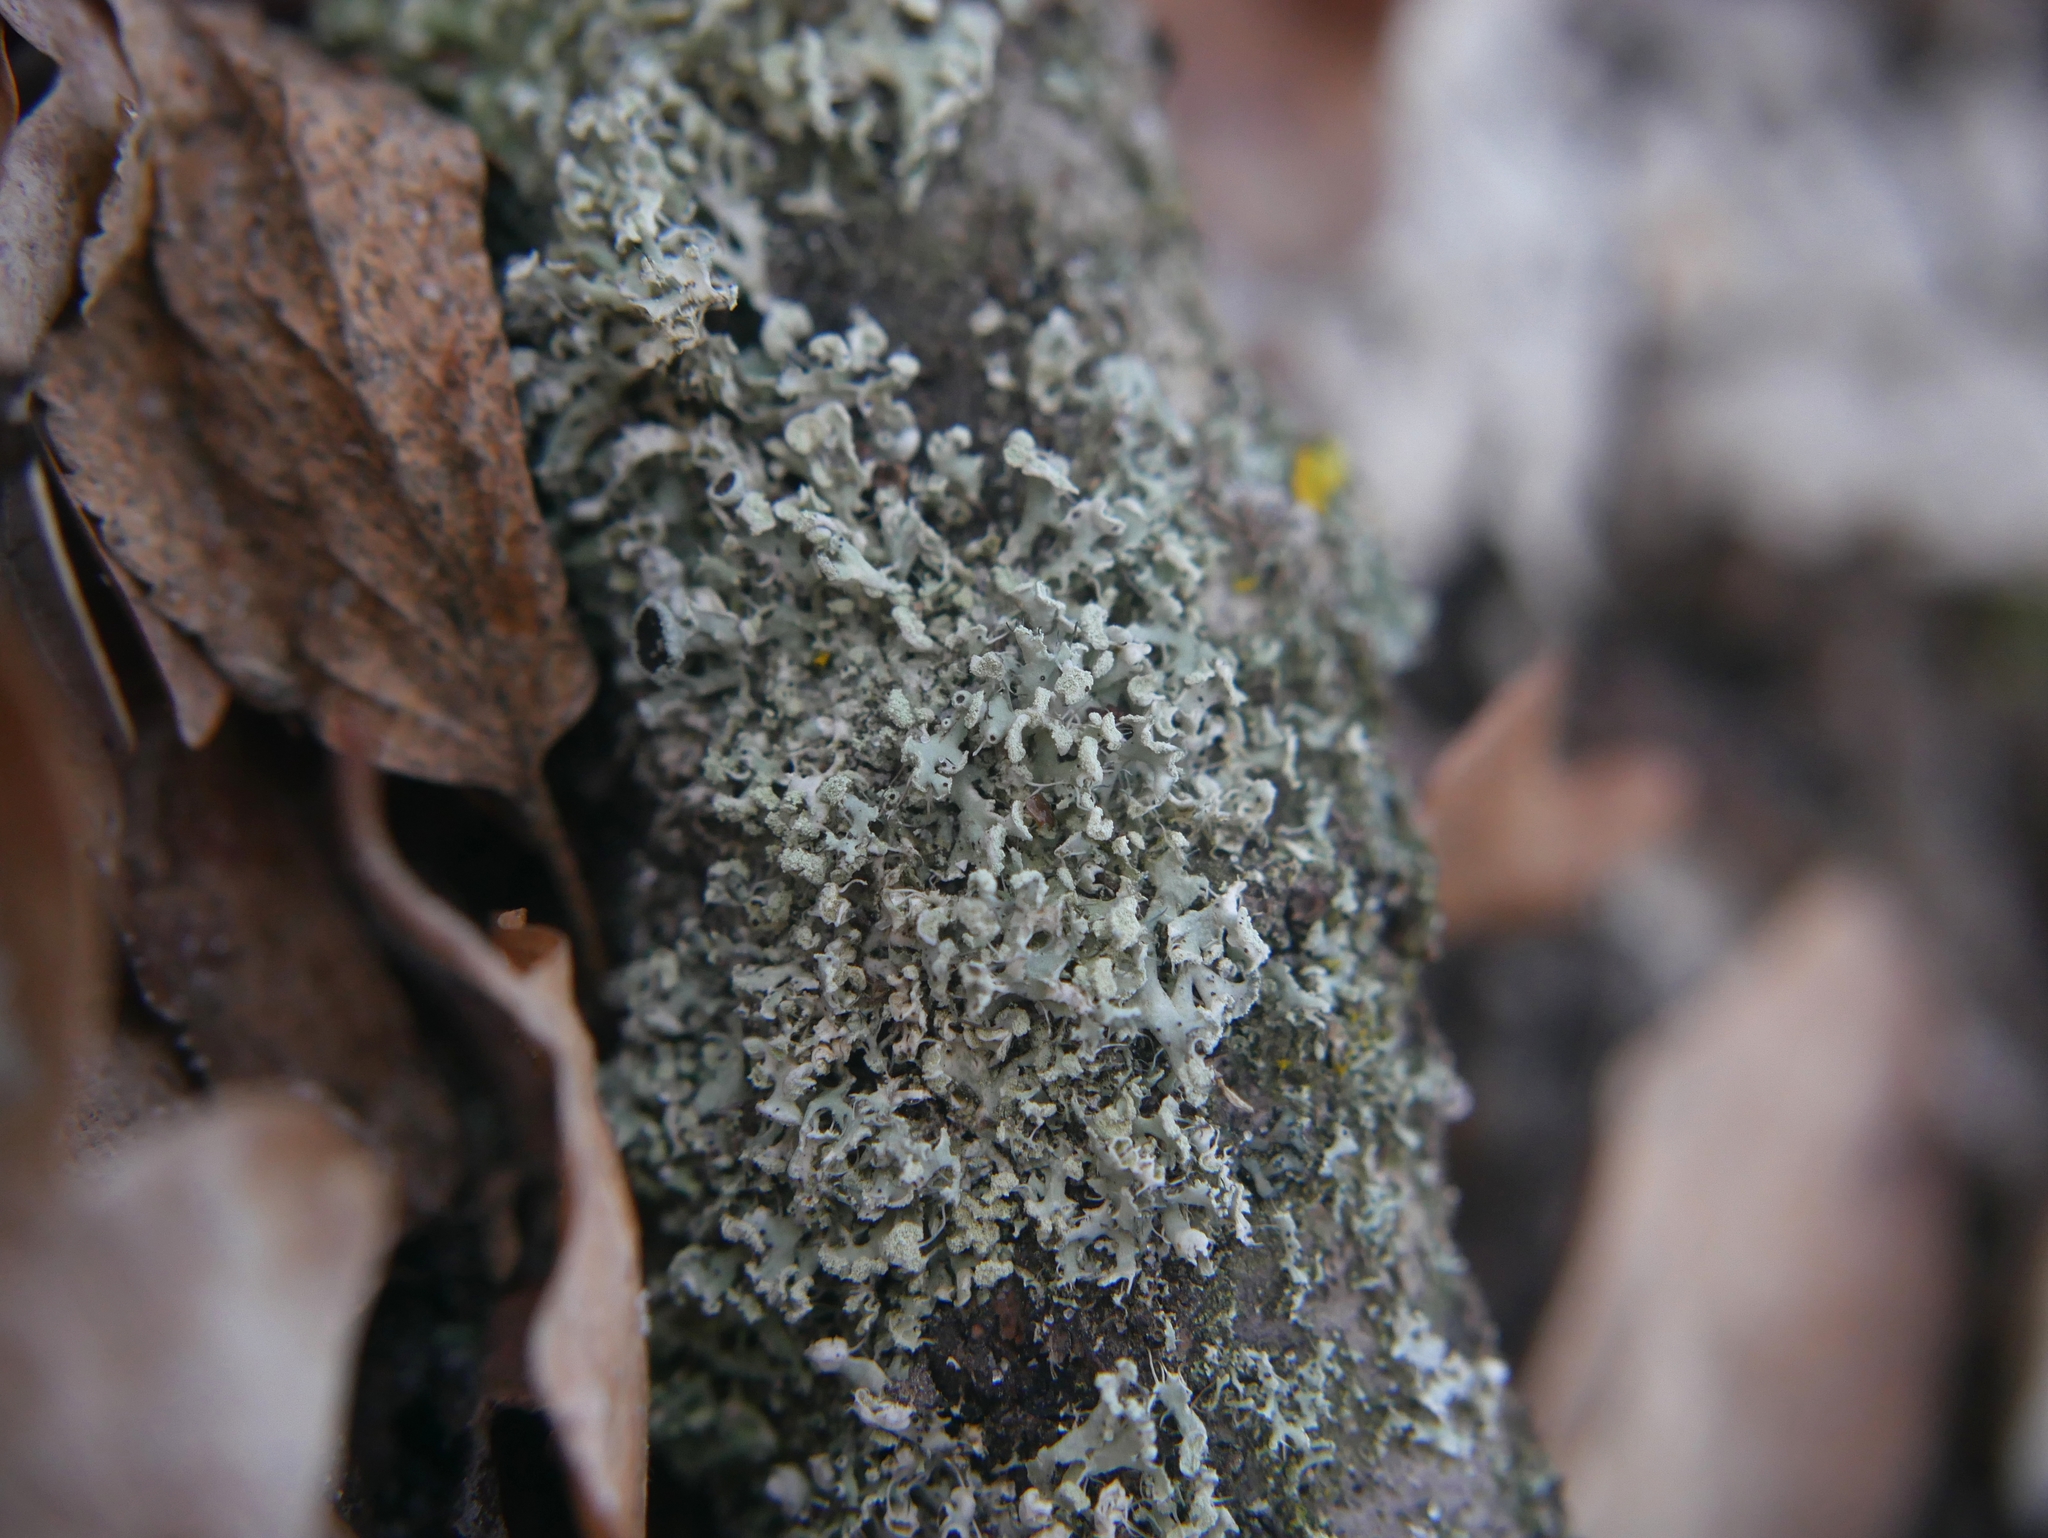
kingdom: Fungi
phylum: Ascomycota
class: Lecanoromycetes
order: Caliciales
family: Physciaceae
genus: Physcia
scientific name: Physcia tenella
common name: Fringed rosette lichen
